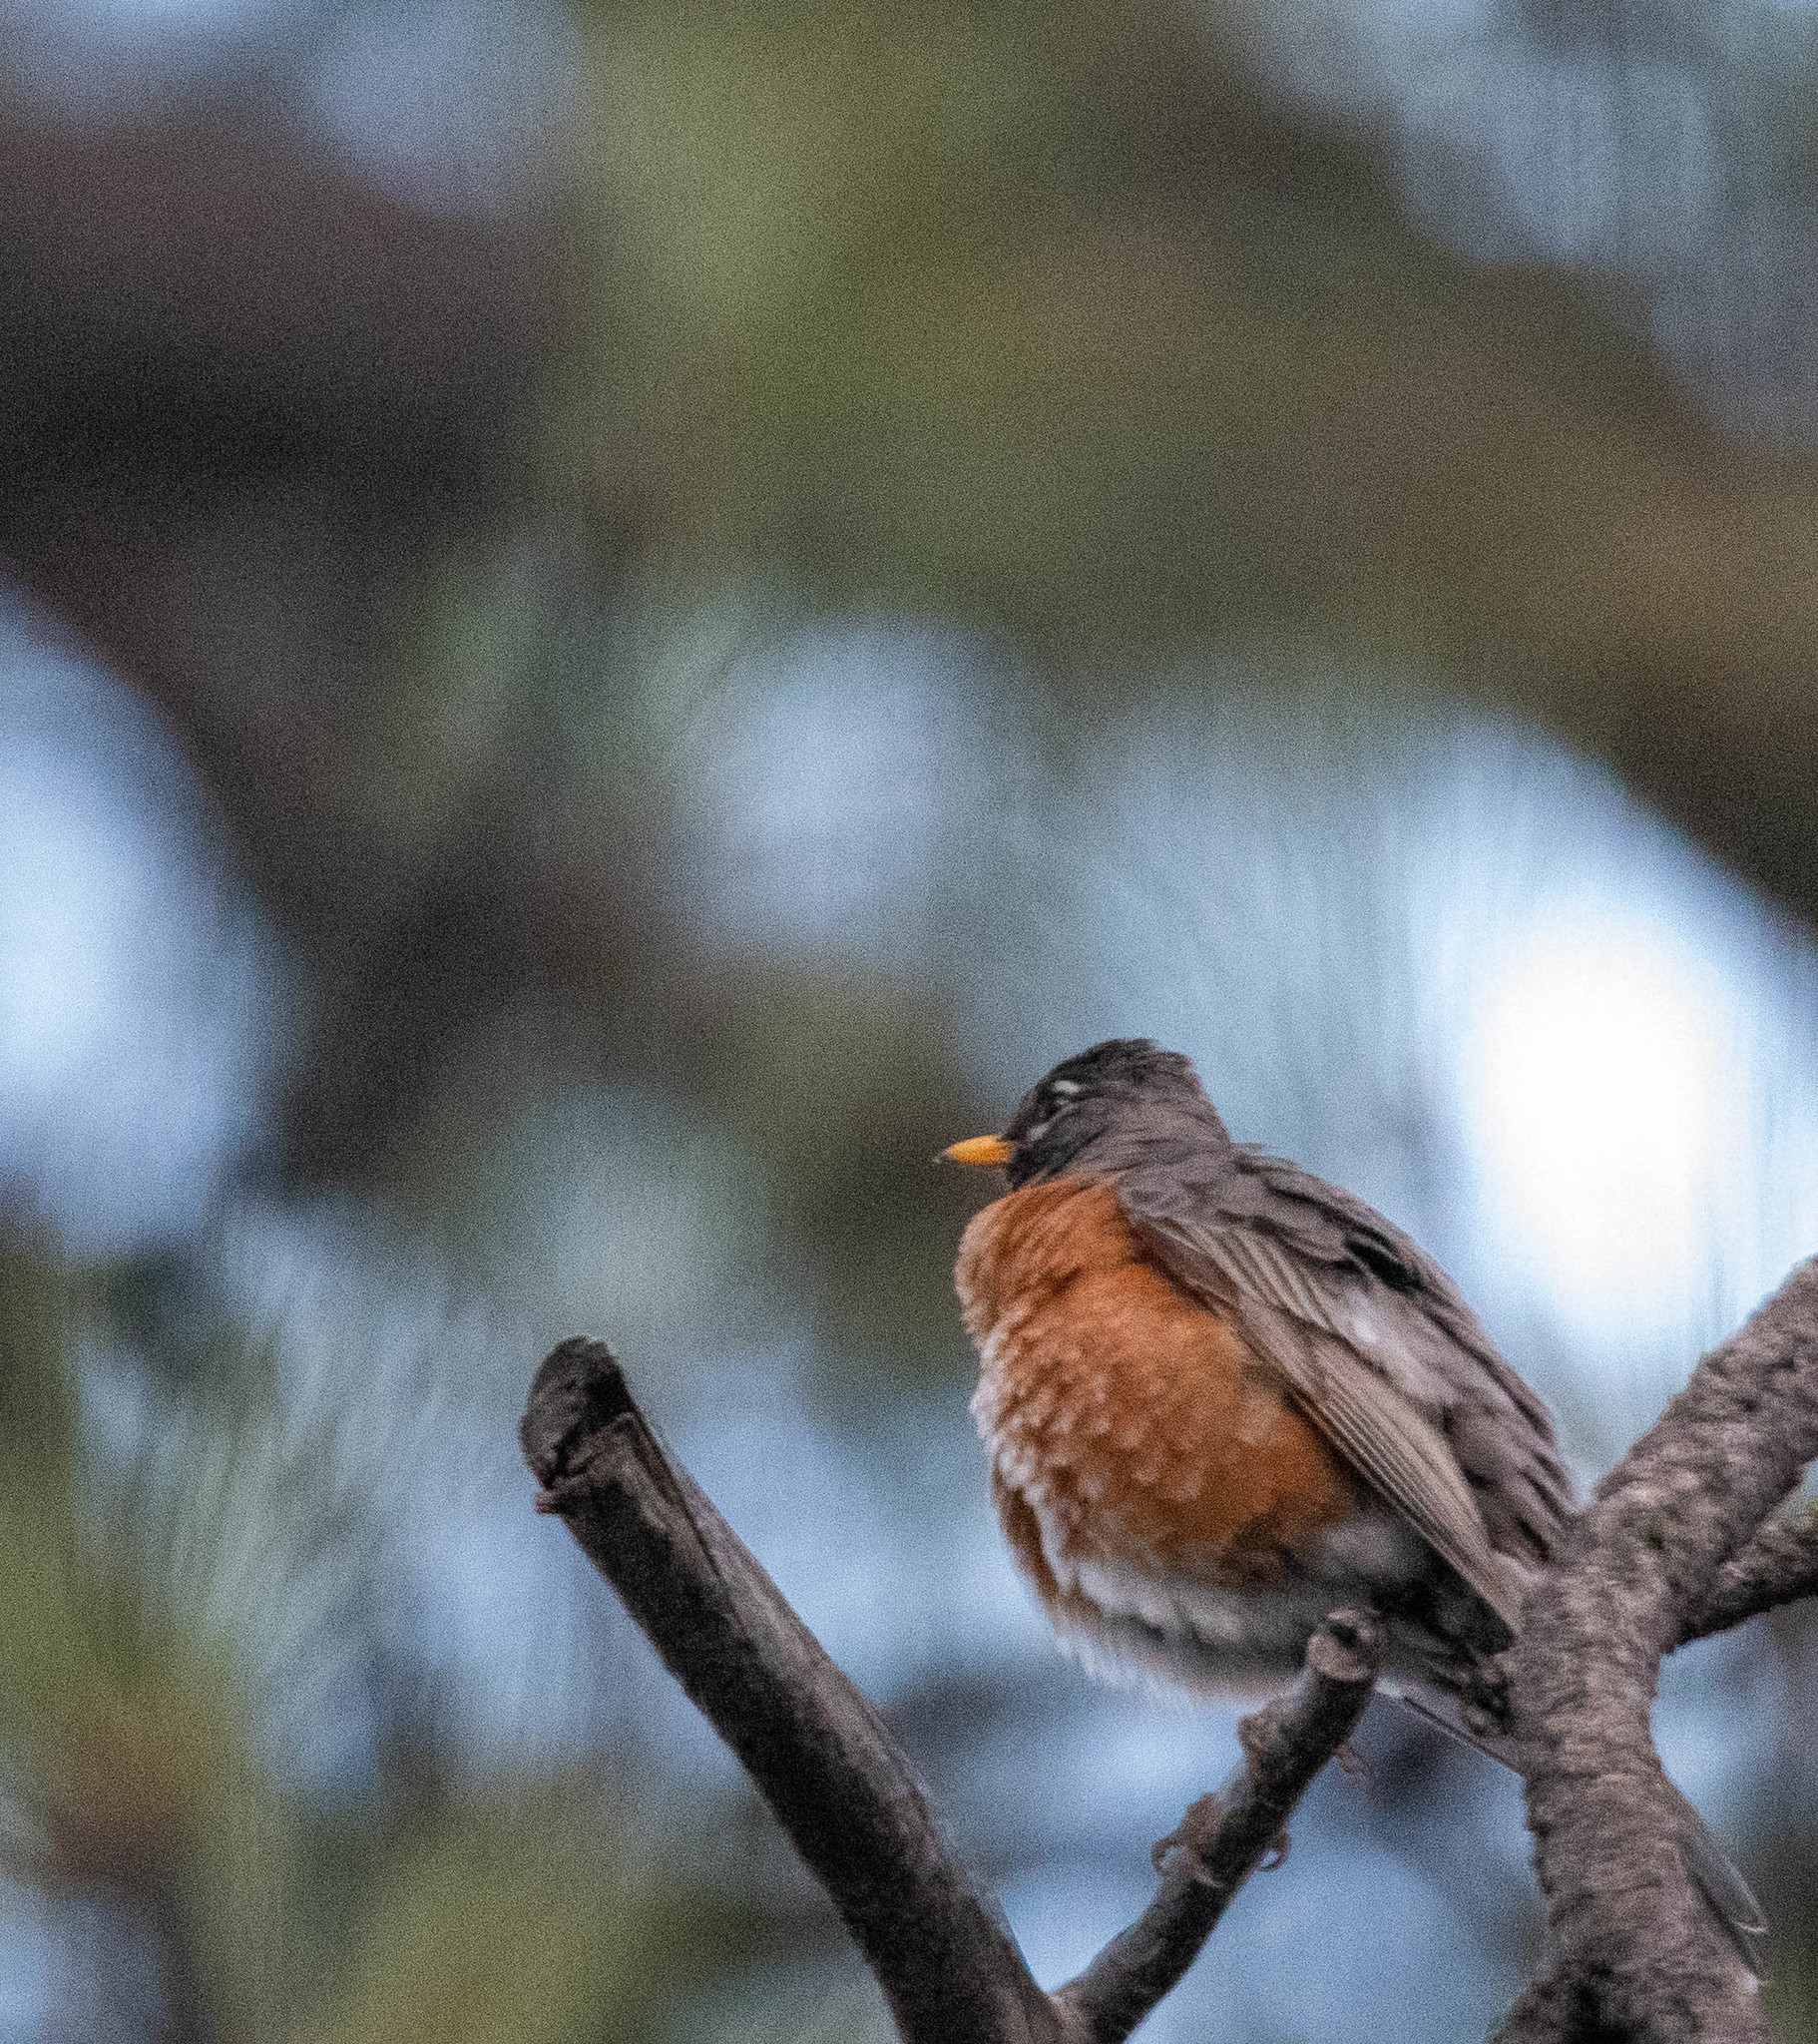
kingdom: Animalia
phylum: Chordata
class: Aves
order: Passeriformes
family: Turdidae
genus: Turdus
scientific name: Turdus migratorius
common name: American robin
